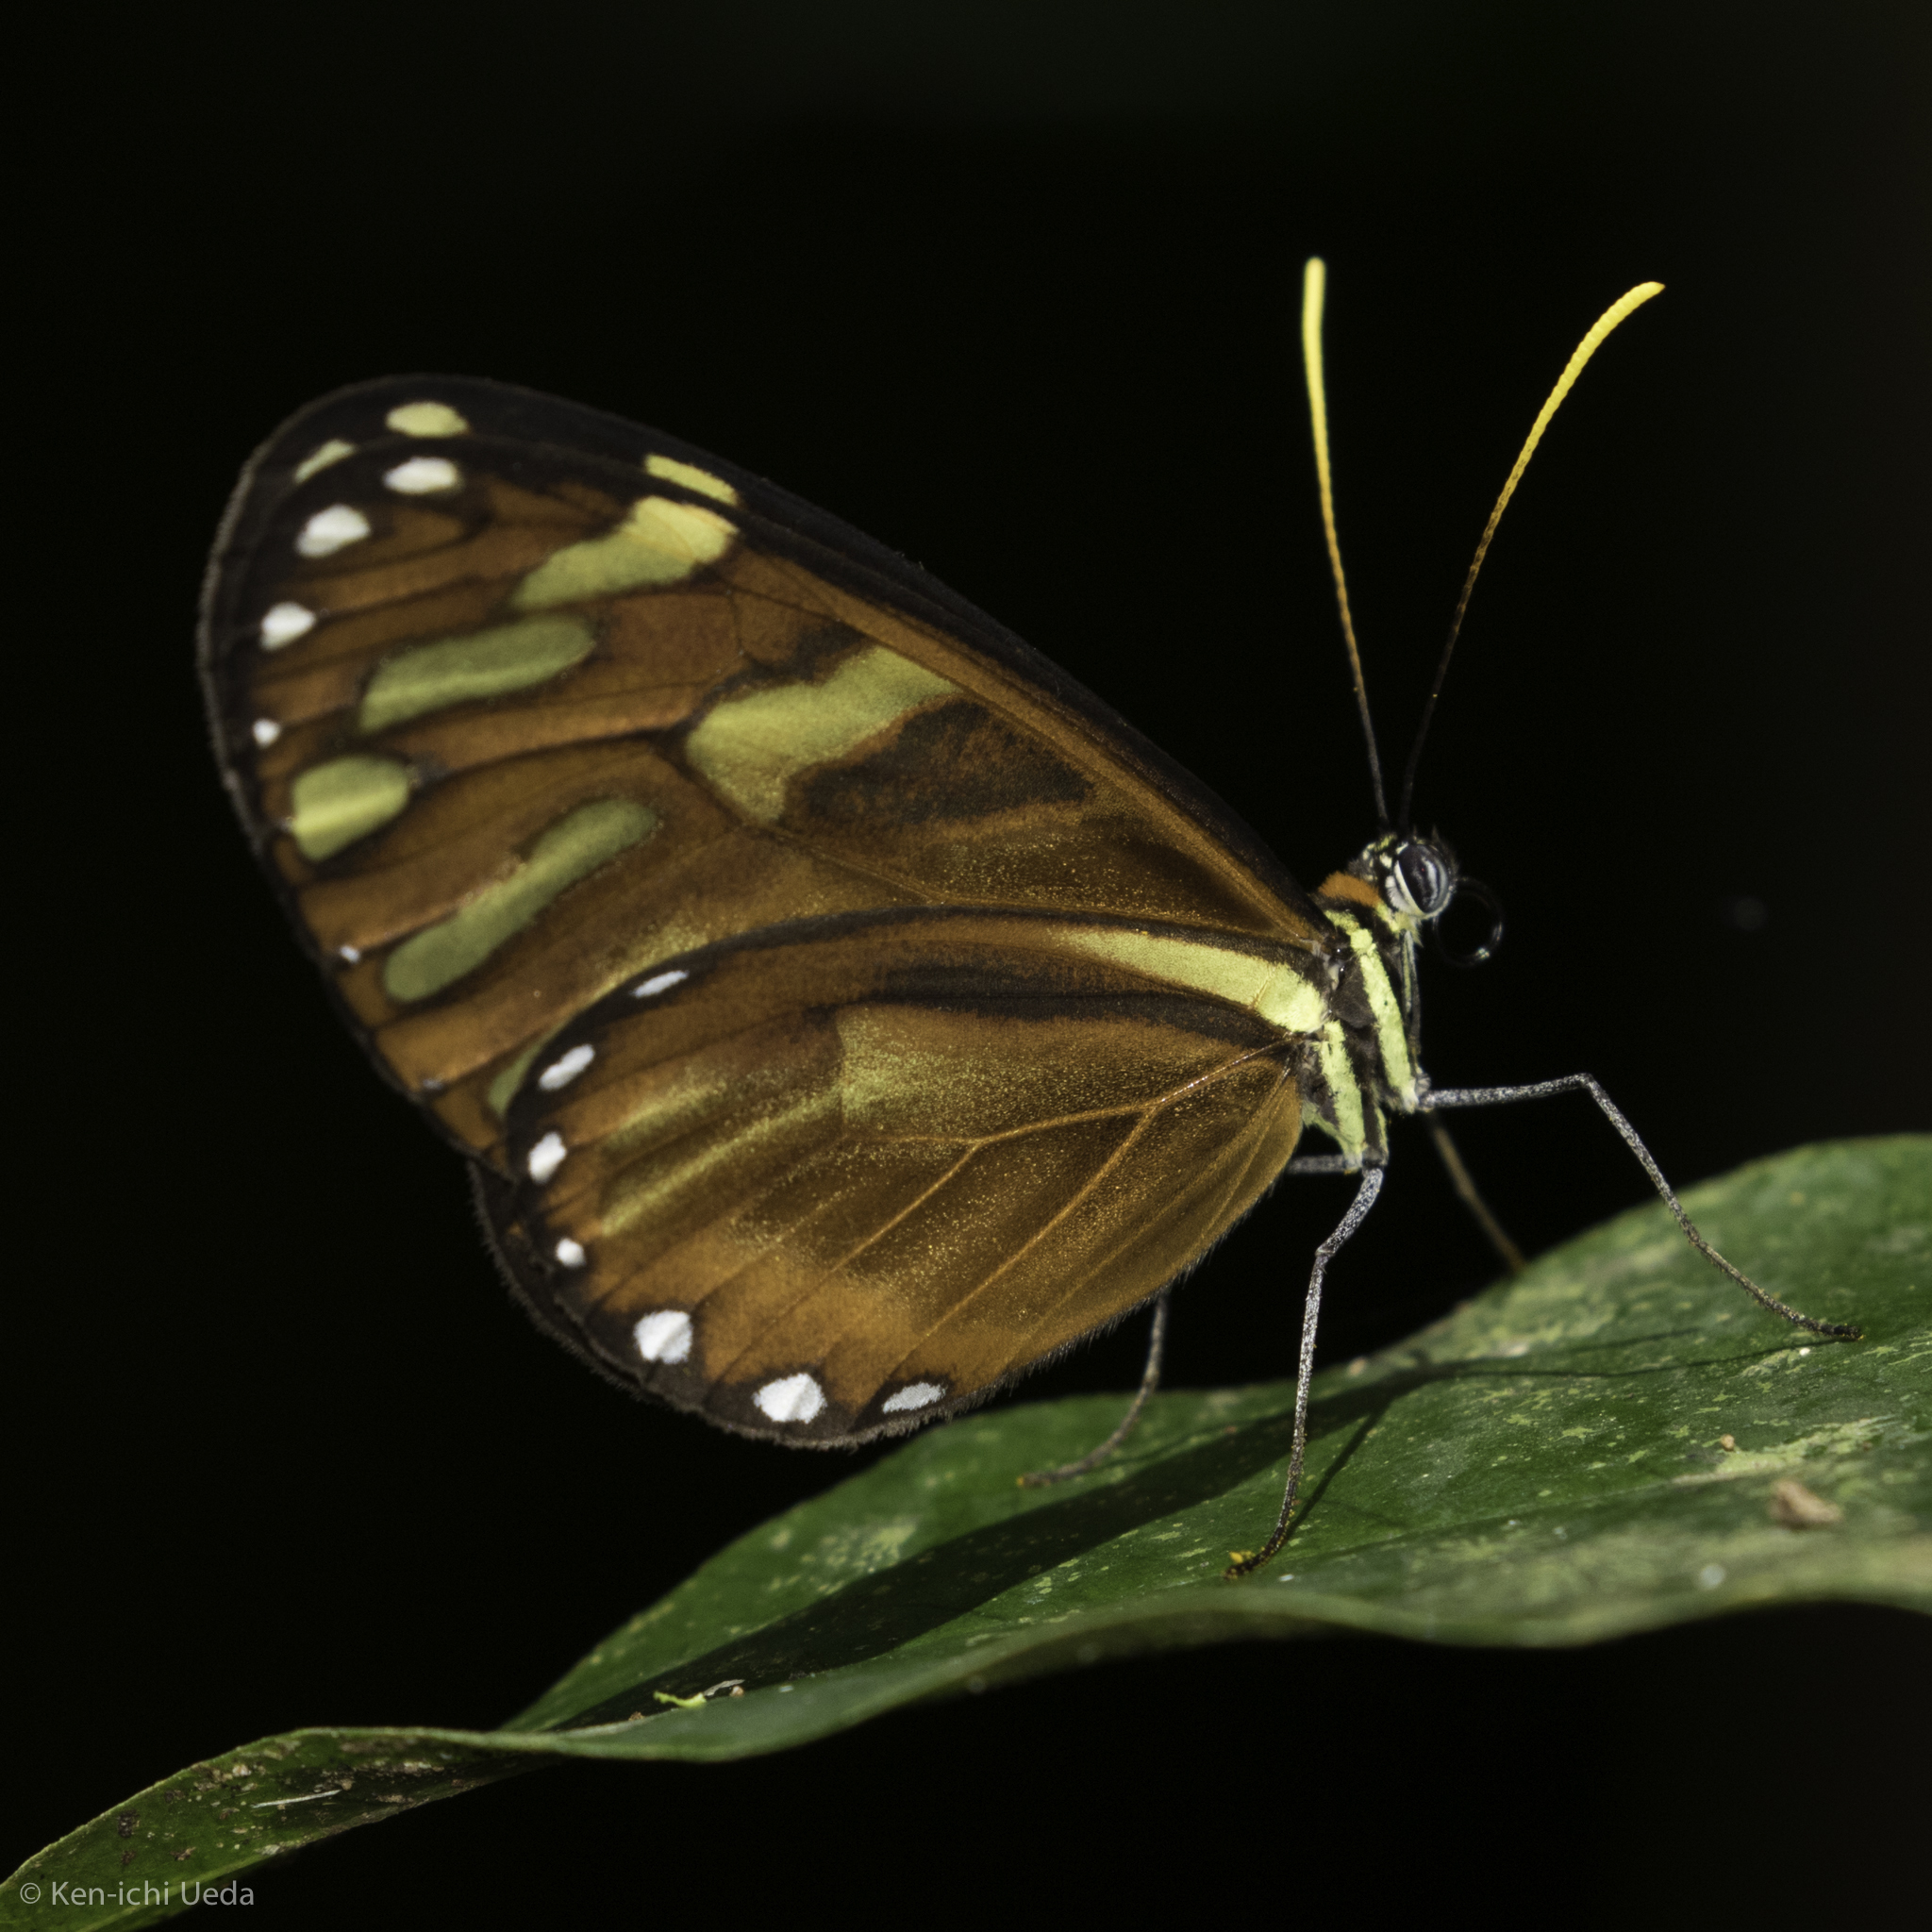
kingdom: Animalia
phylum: Arthropoda
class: Insecta
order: Lepidoptera
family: Nymphalidae
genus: Ithomia
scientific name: Ithomia heraldica
